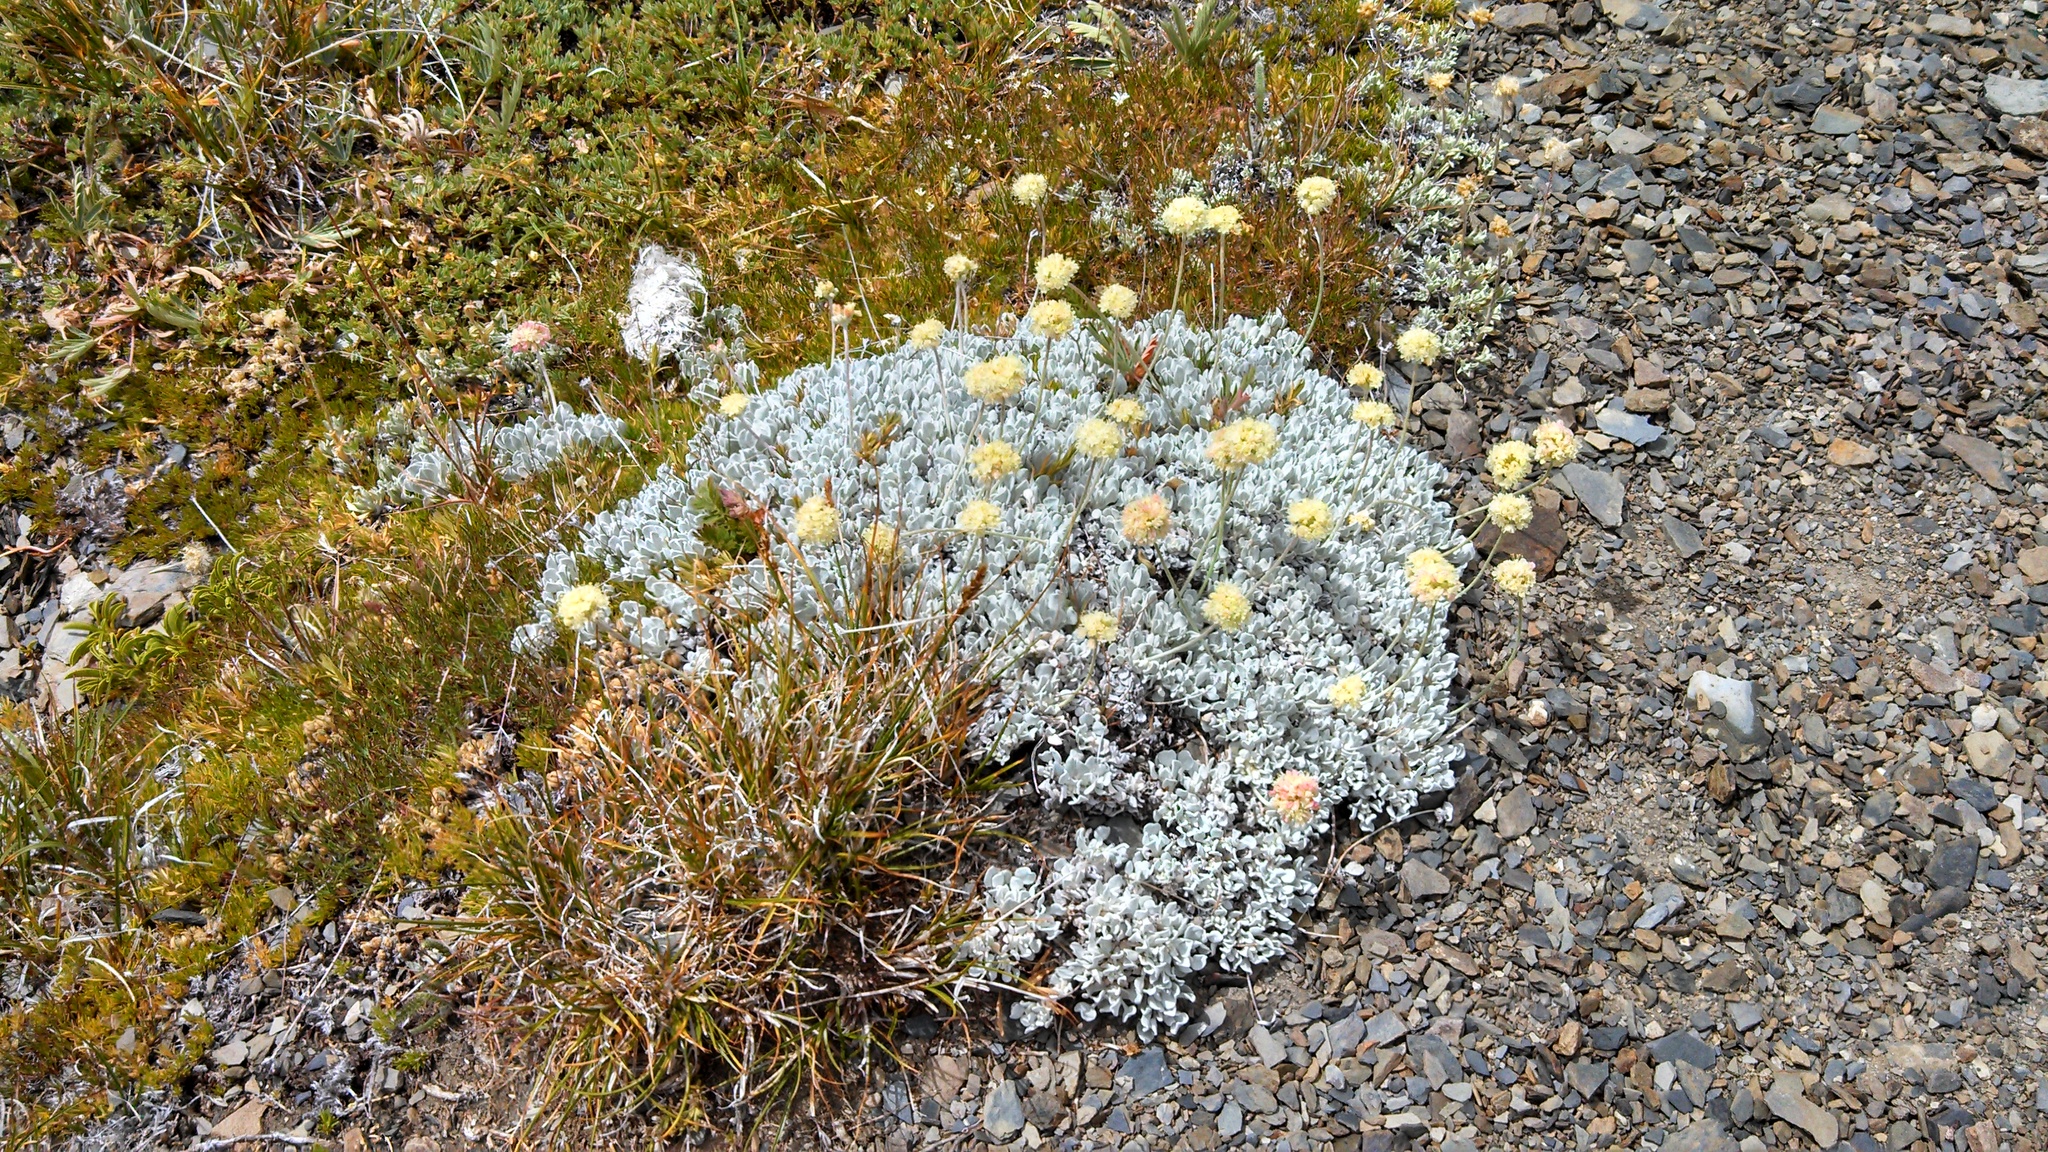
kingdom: Plantae
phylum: Tracheophyta
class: Magnoliopsida
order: Caryophyllales
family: Polygonaceae
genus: Eriogonum
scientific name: Eriogonum ovalifolium
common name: Cushion buckwheat
